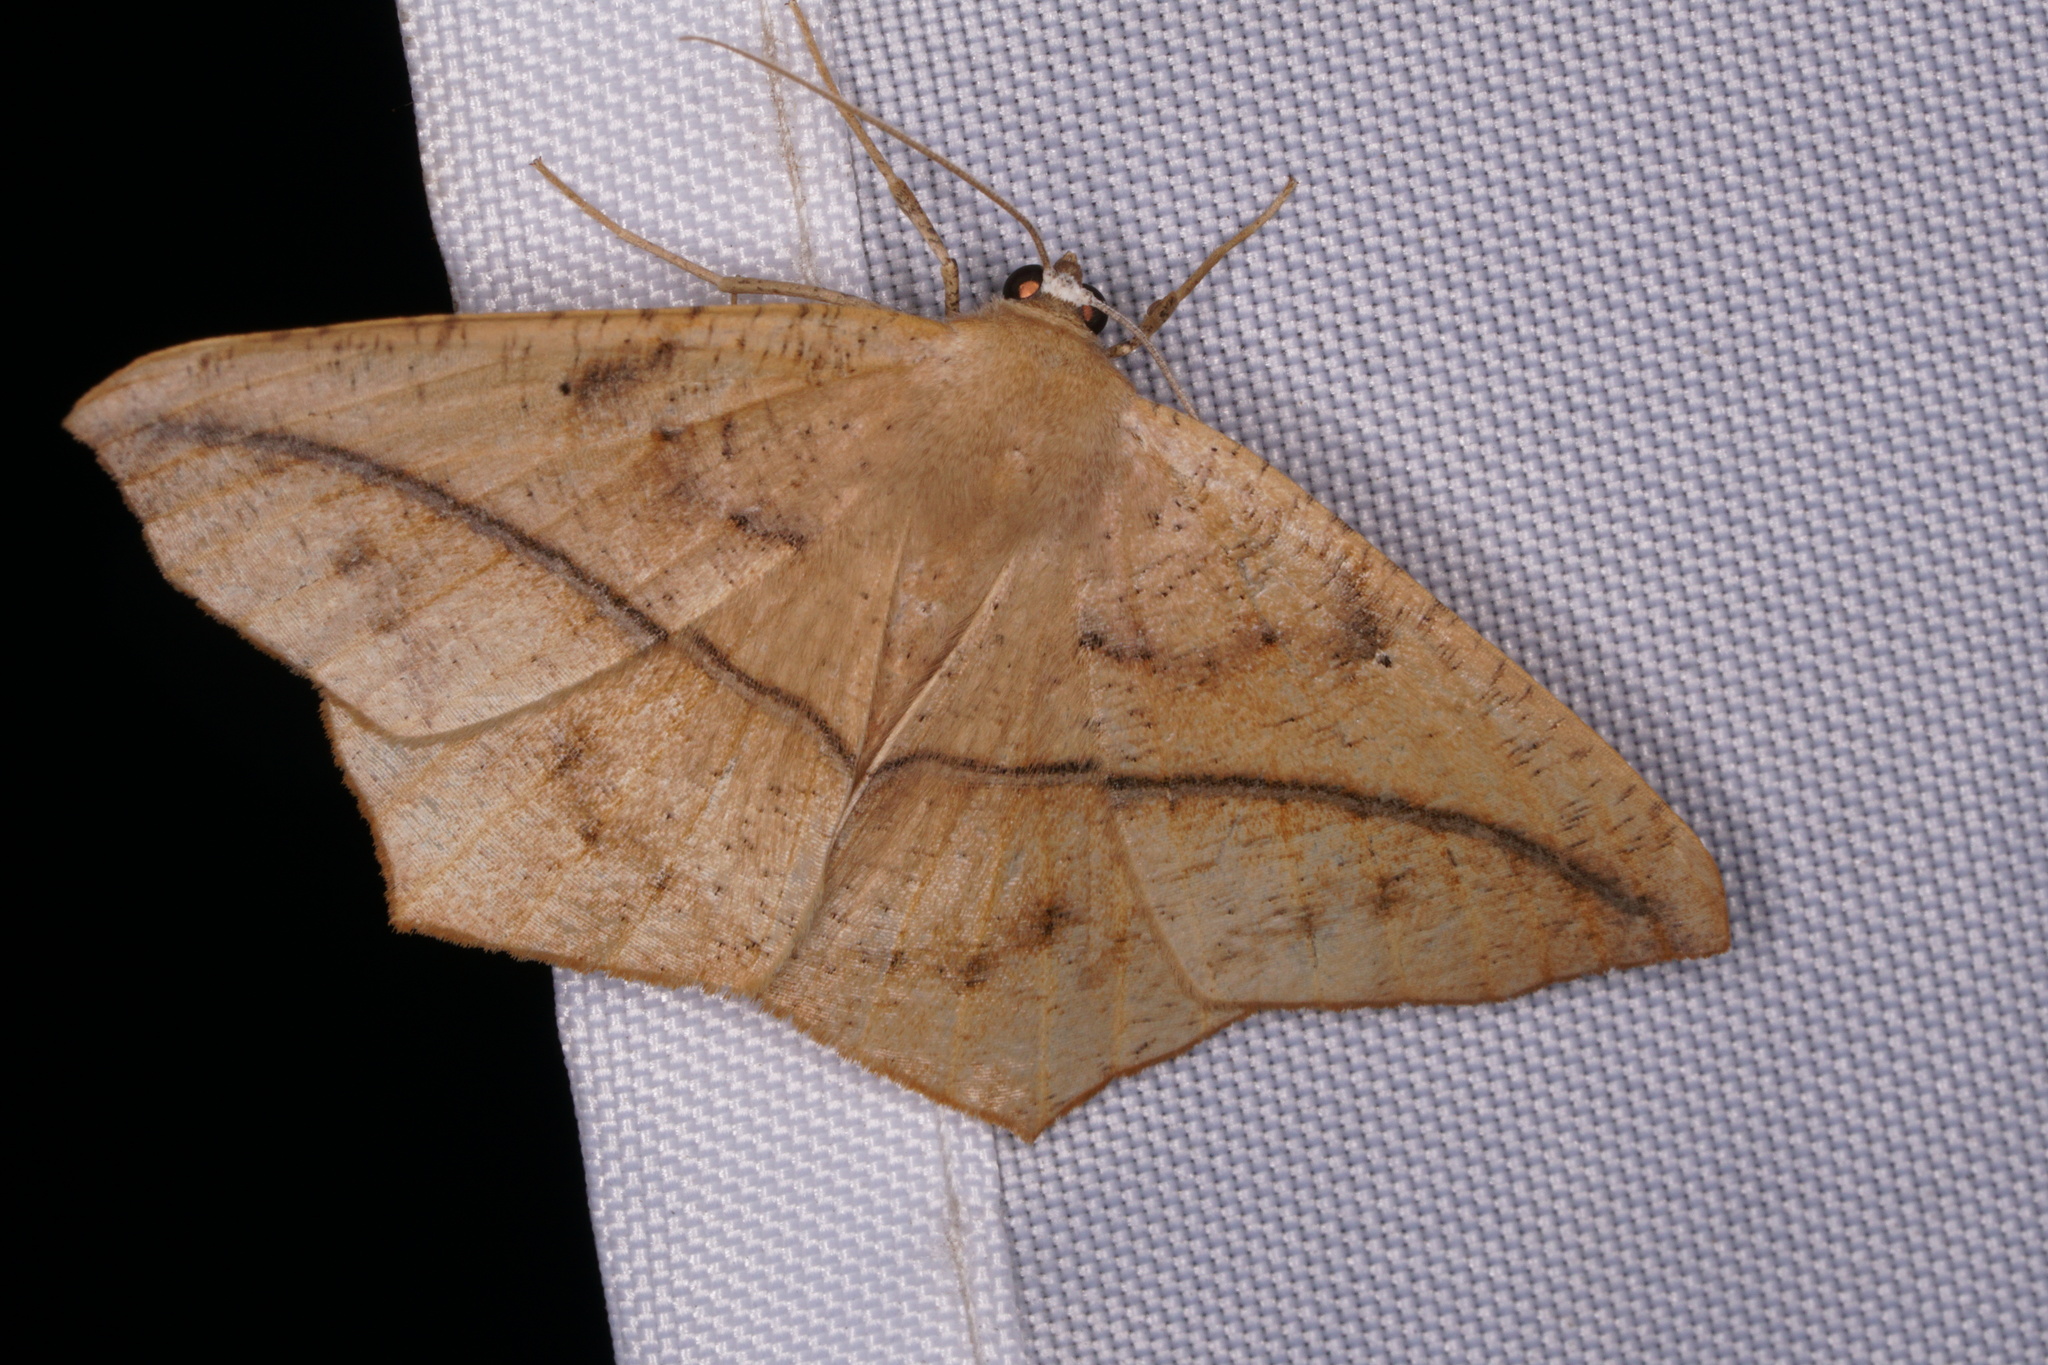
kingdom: Animalia
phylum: Arthropoda
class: Insecta
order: Lepidoptera
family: Geometridae
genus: Prochoerodes
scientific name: Prochoerodes lineola
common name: Large maple spanworm
